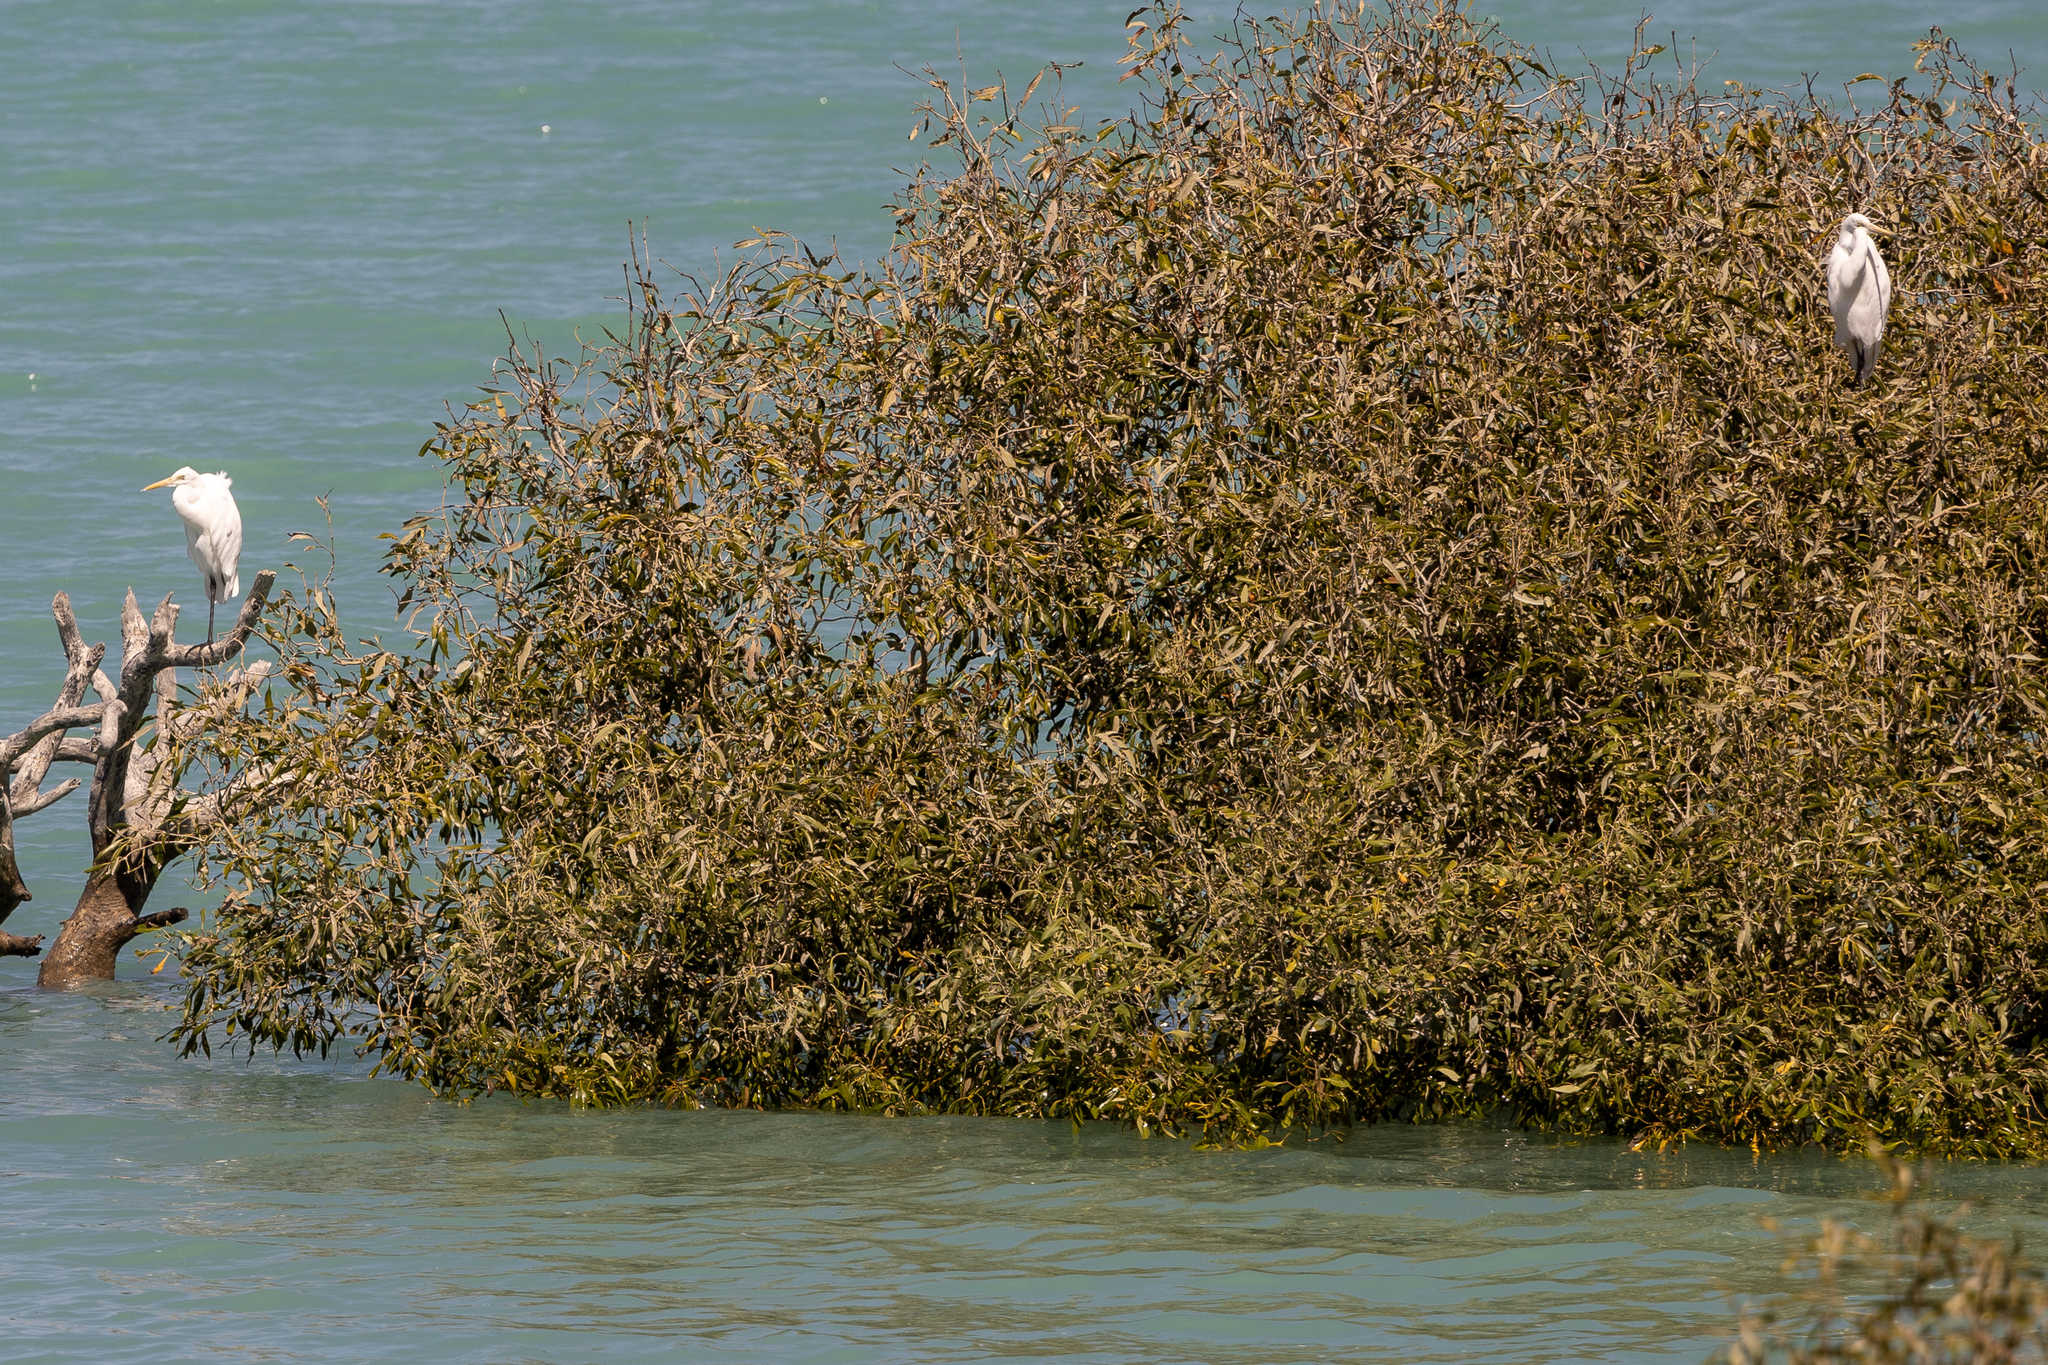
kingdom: Animalia
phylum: Chordata
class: Aves
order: Pelecaniformes
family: Ardeidae
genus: Ardea
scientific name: Ardea alba
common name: Great egret
